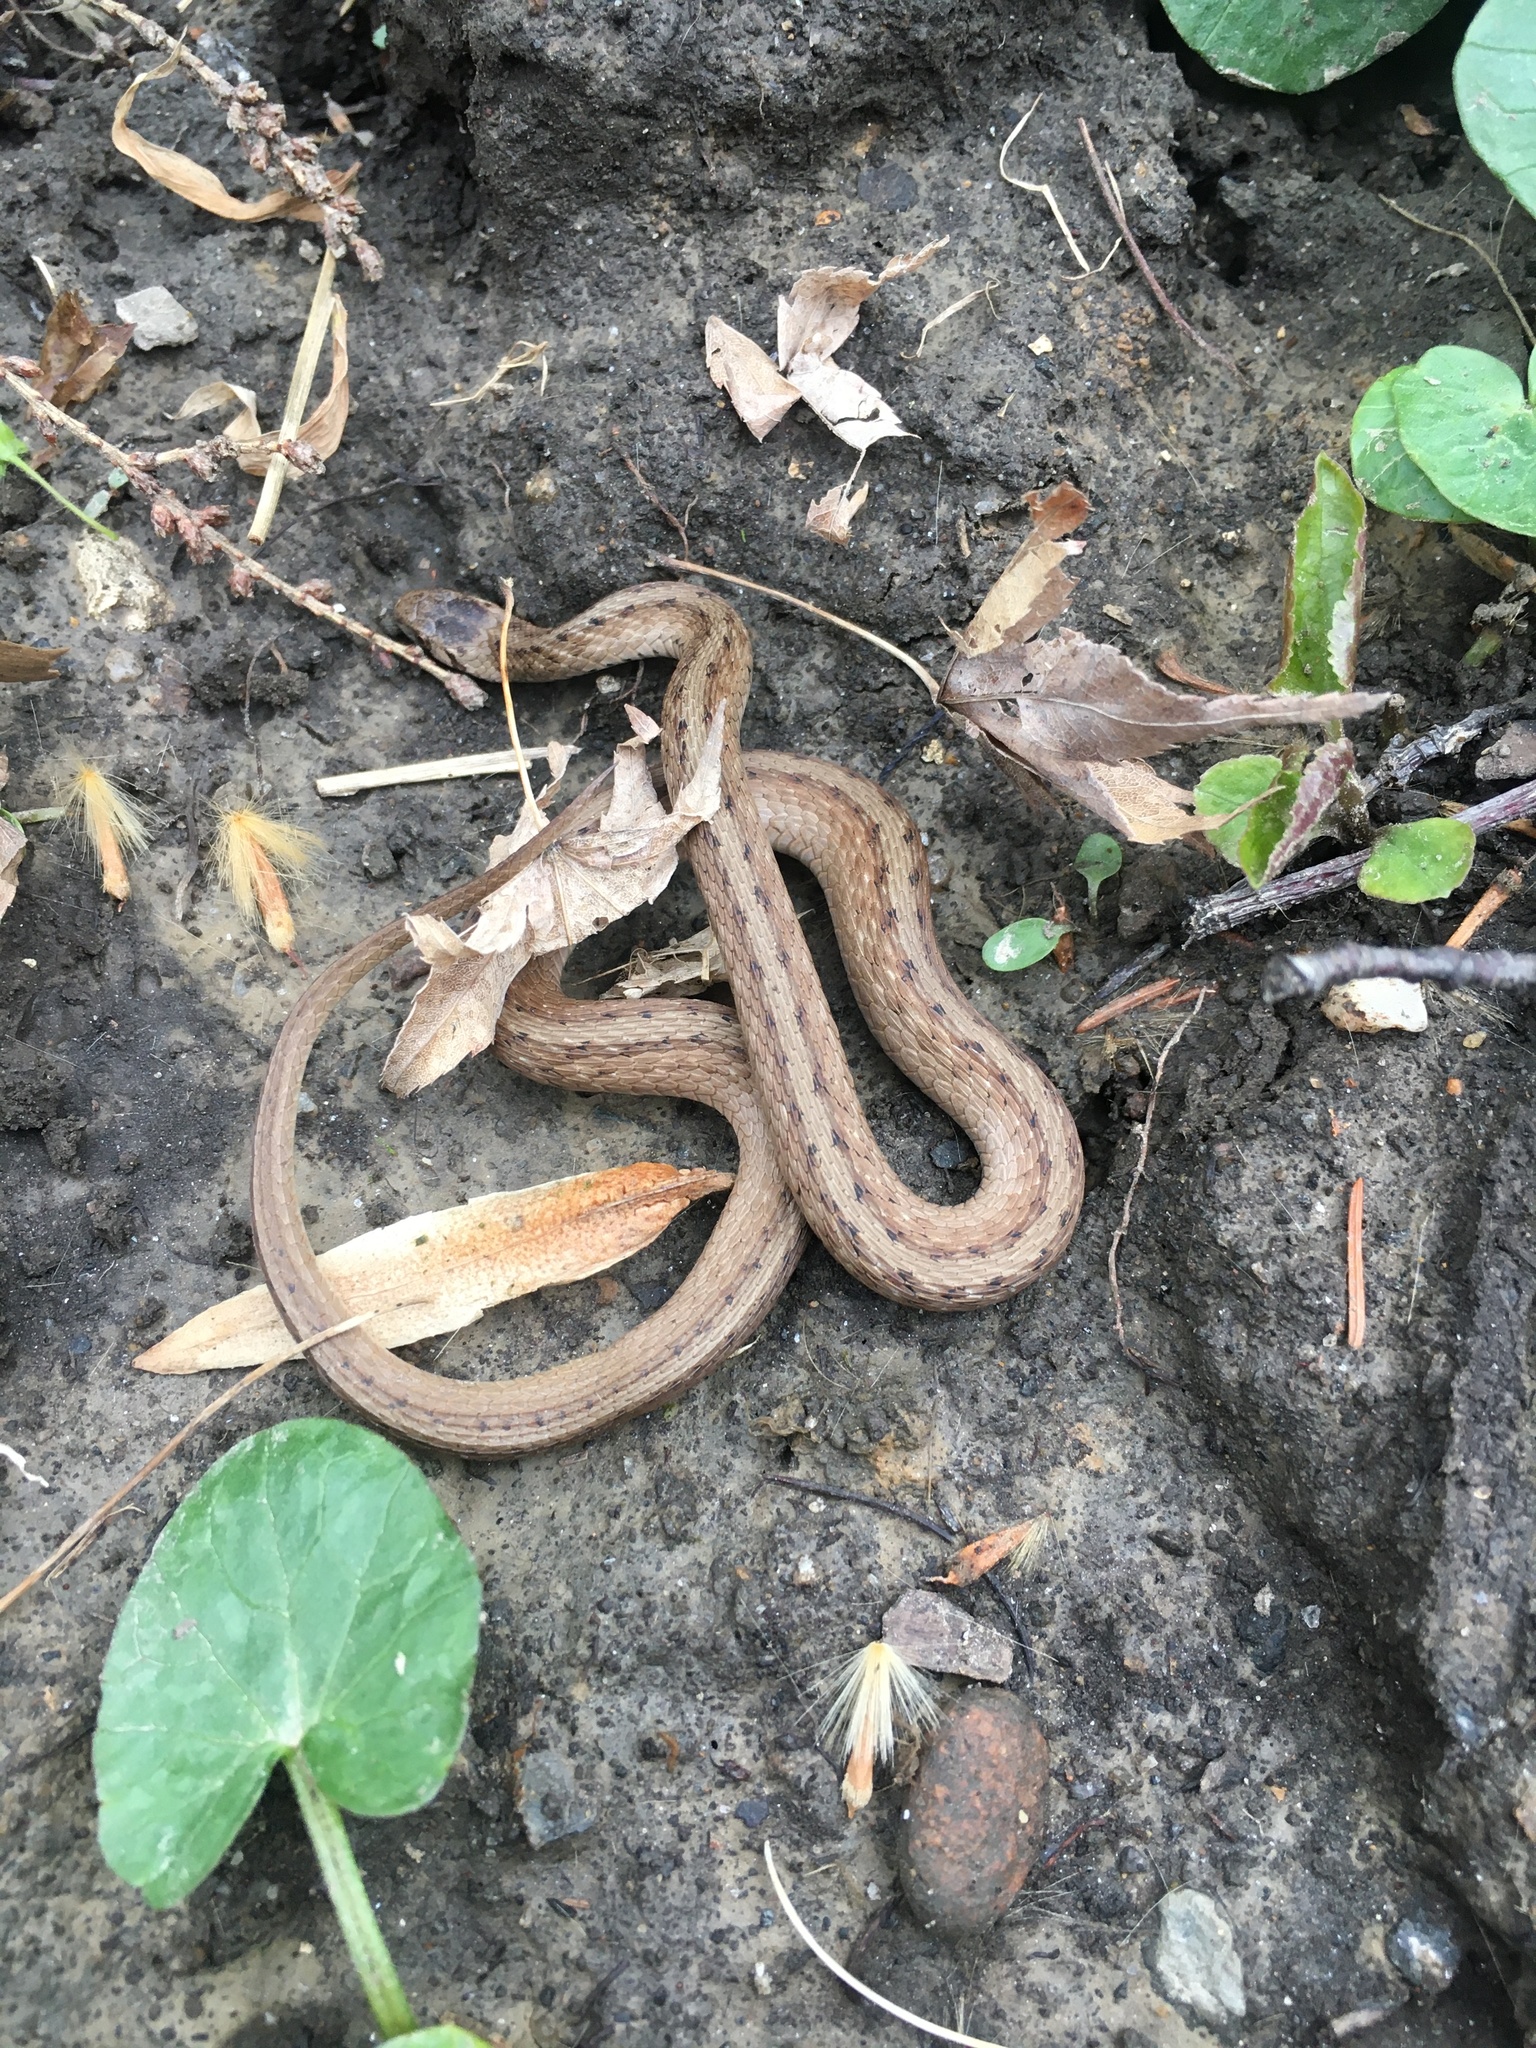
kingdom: Animalia
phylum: Chordata
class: Squamata
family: Colubridae
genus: Storeria
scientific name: Storeria dekayi
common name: (dekay’s) brown snake
